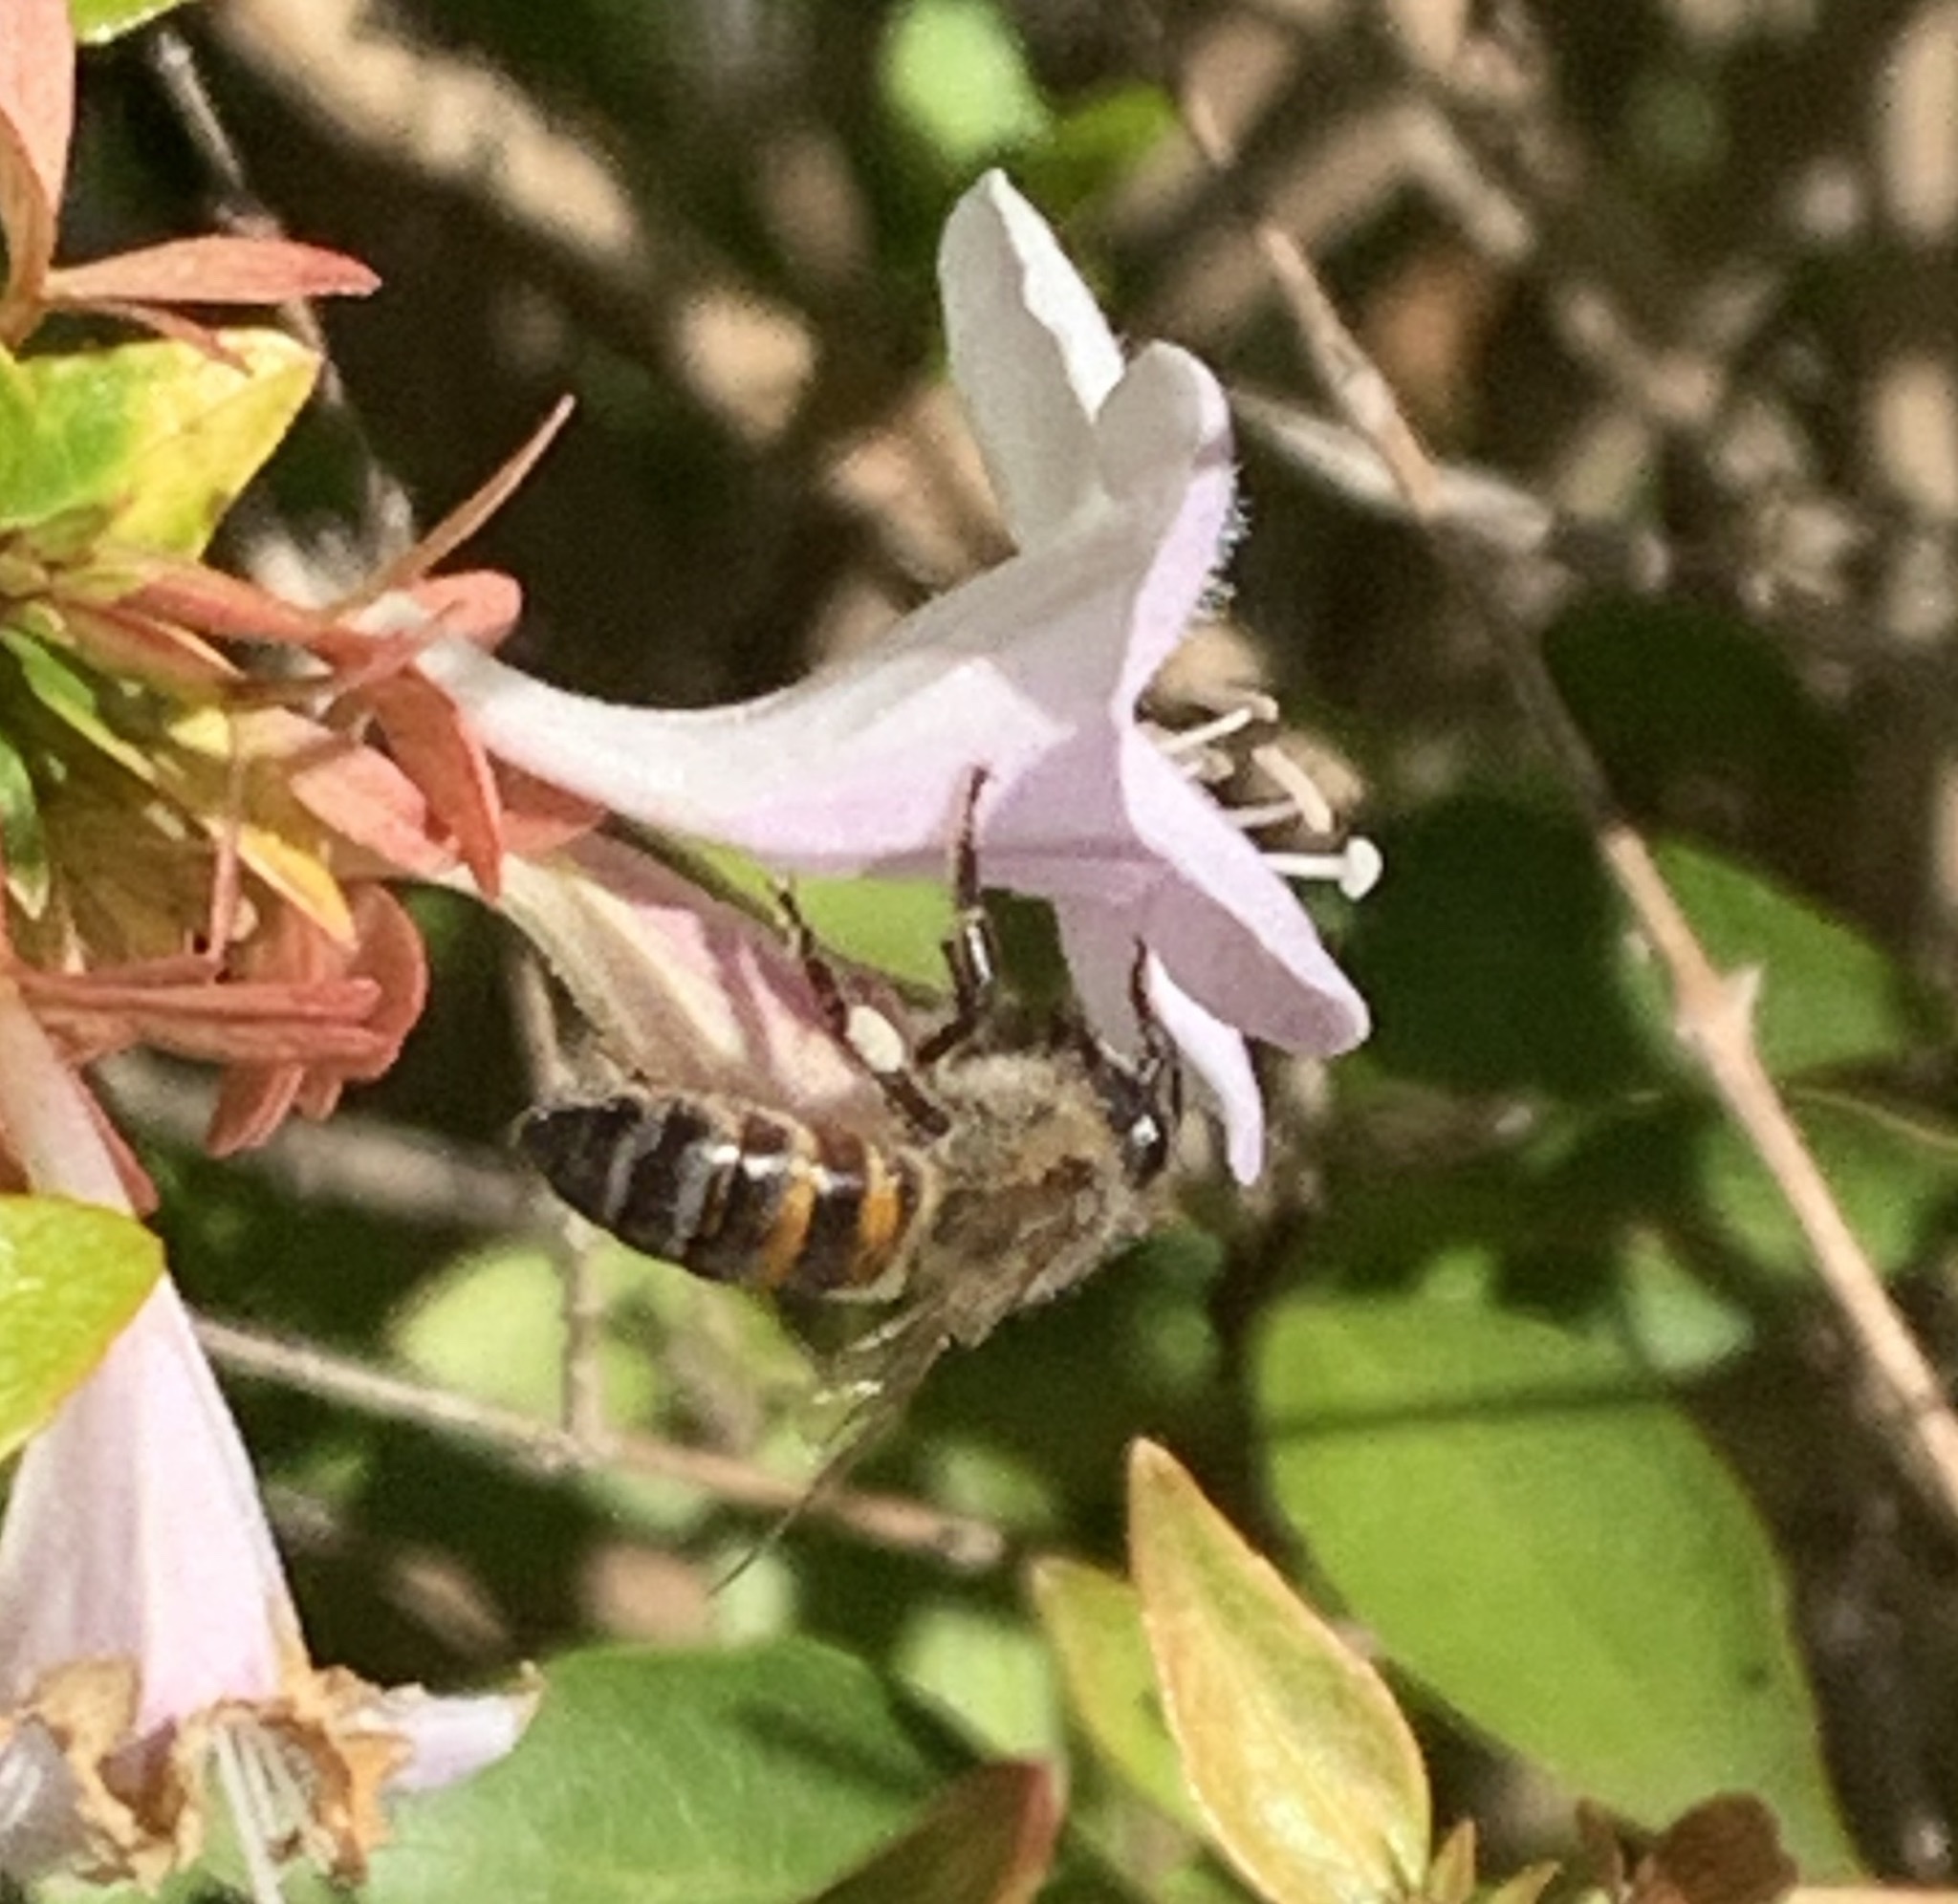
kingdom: Animalia
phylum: Arthropoda
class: Insecta
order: Hymenoptera
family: Apidae
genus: Apis
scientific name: Apis mellifera
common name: Honey bee
